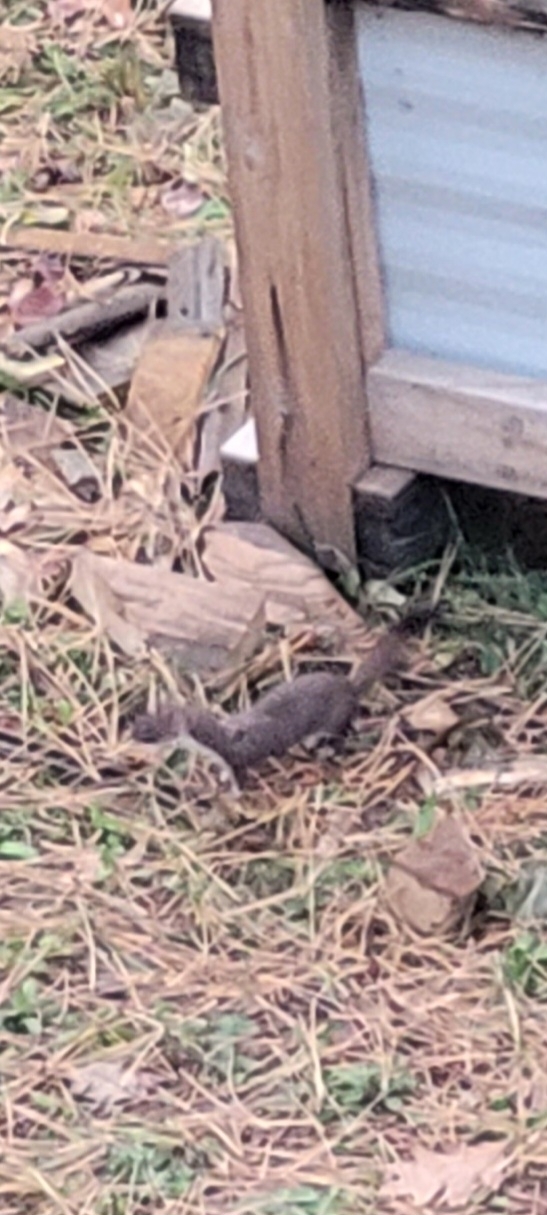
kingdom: Animalia
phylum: Chordata
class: Mammalia
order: Carnivora
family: Mustelidae
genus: Mustela
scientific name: Mustela erminea
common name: Stoat
